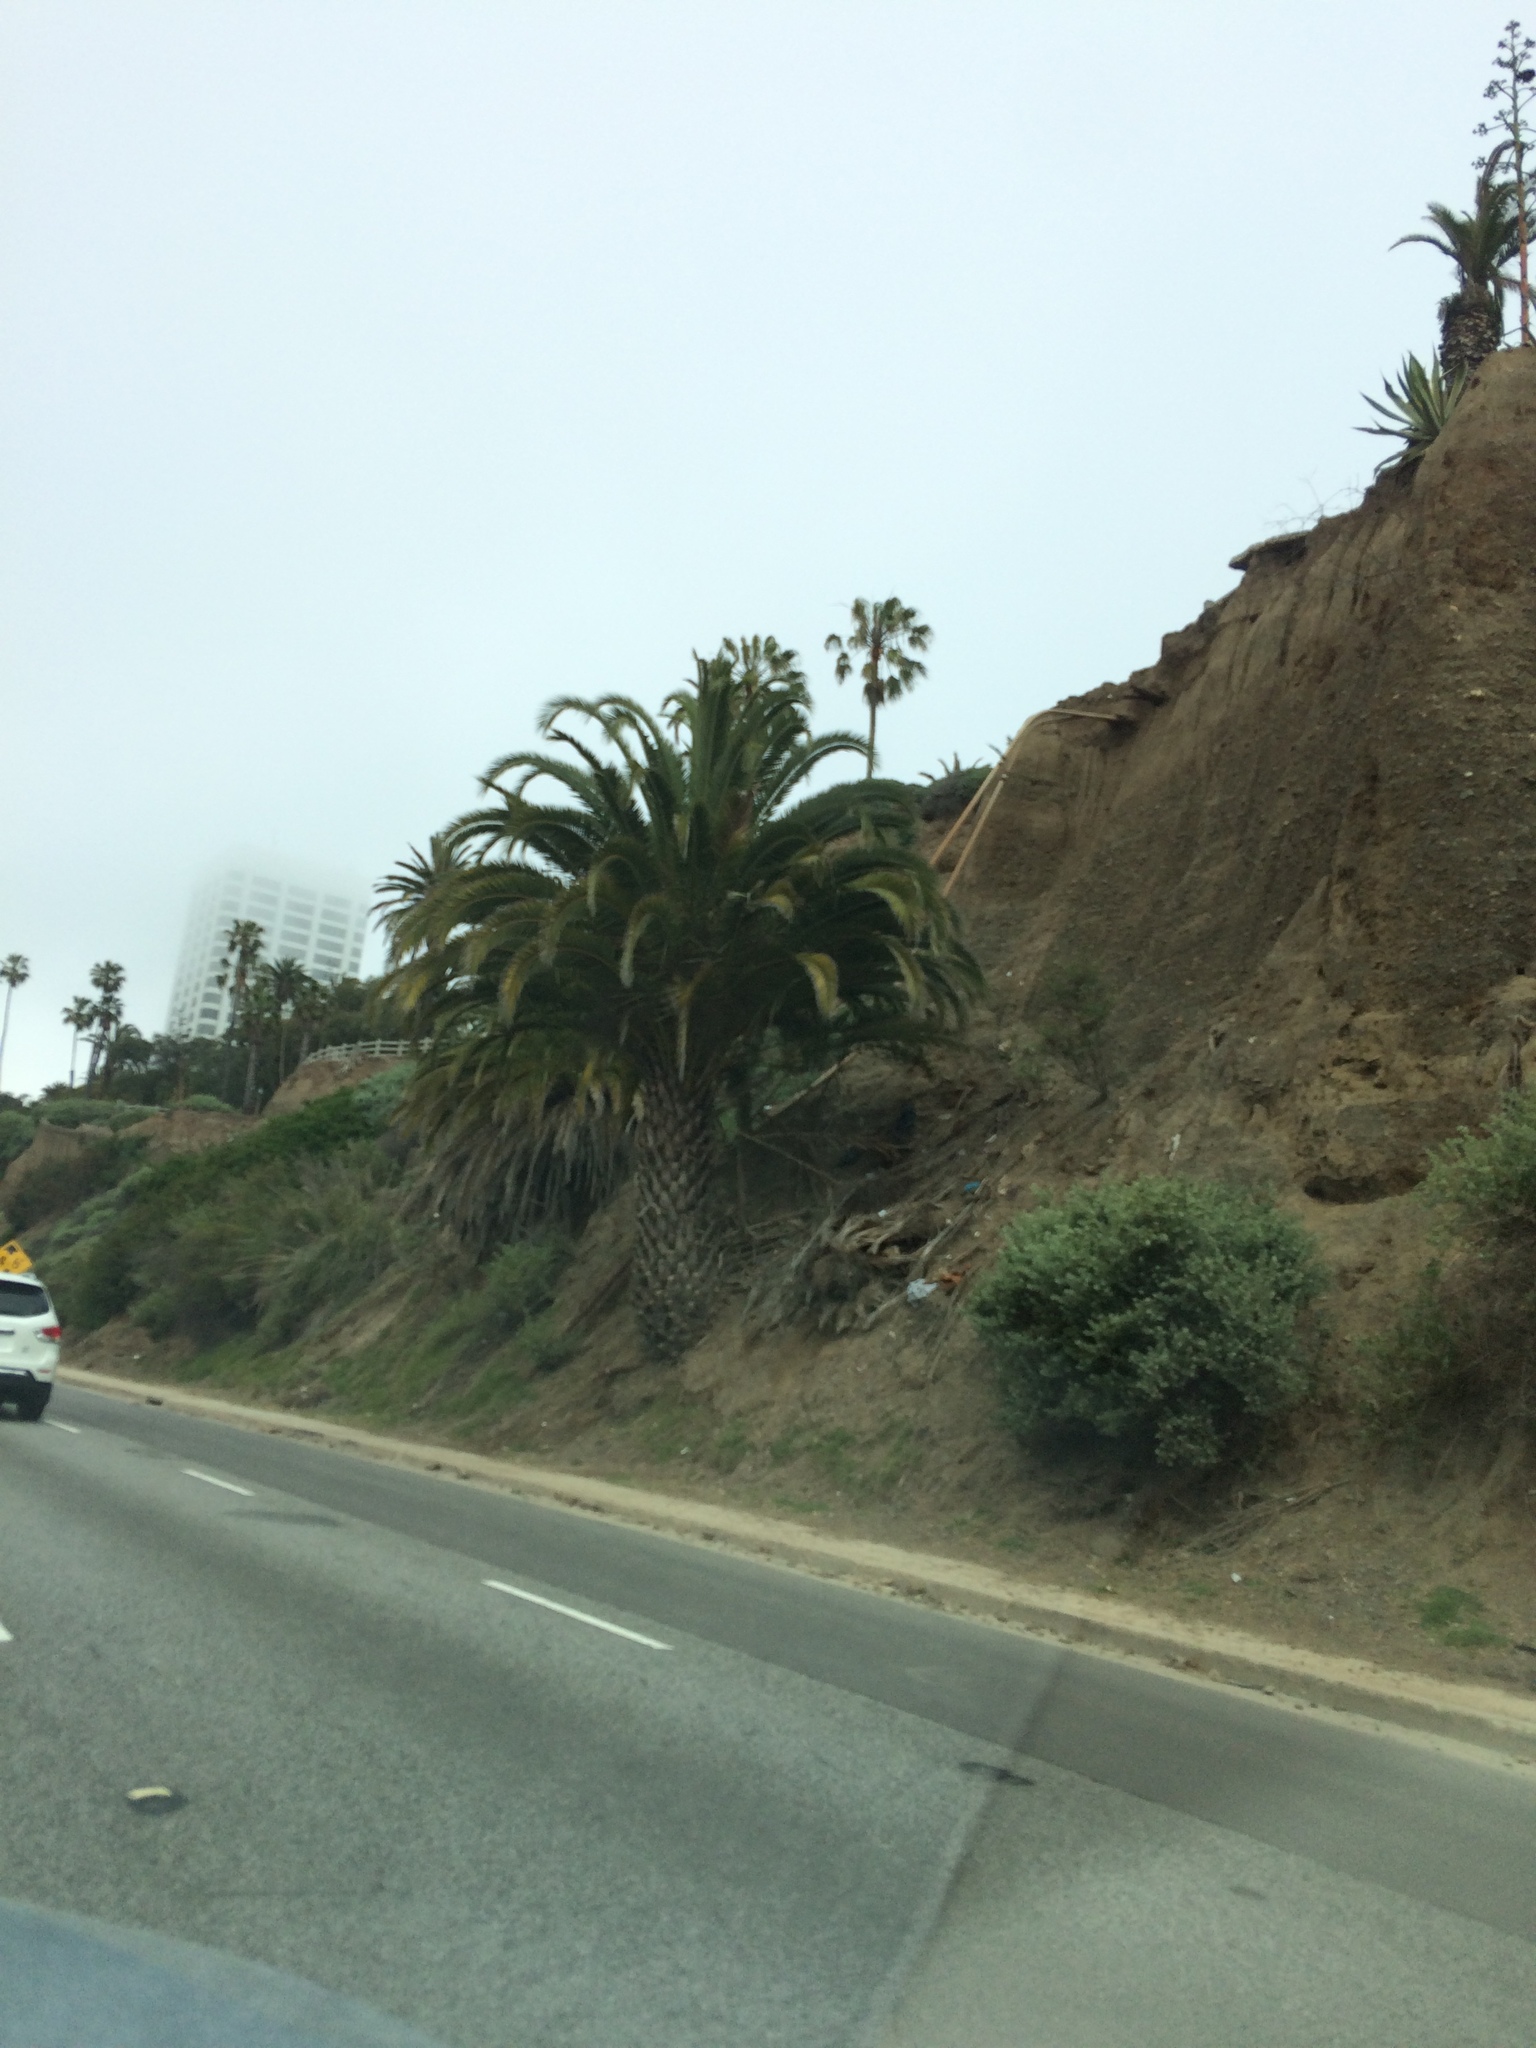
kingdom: Plantae
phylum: Tracheophyta
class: Liliopsida
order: Arecales
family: Arecaceae
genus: Phoenix
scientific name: Phoenix canariensis
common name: Canary island date palm
